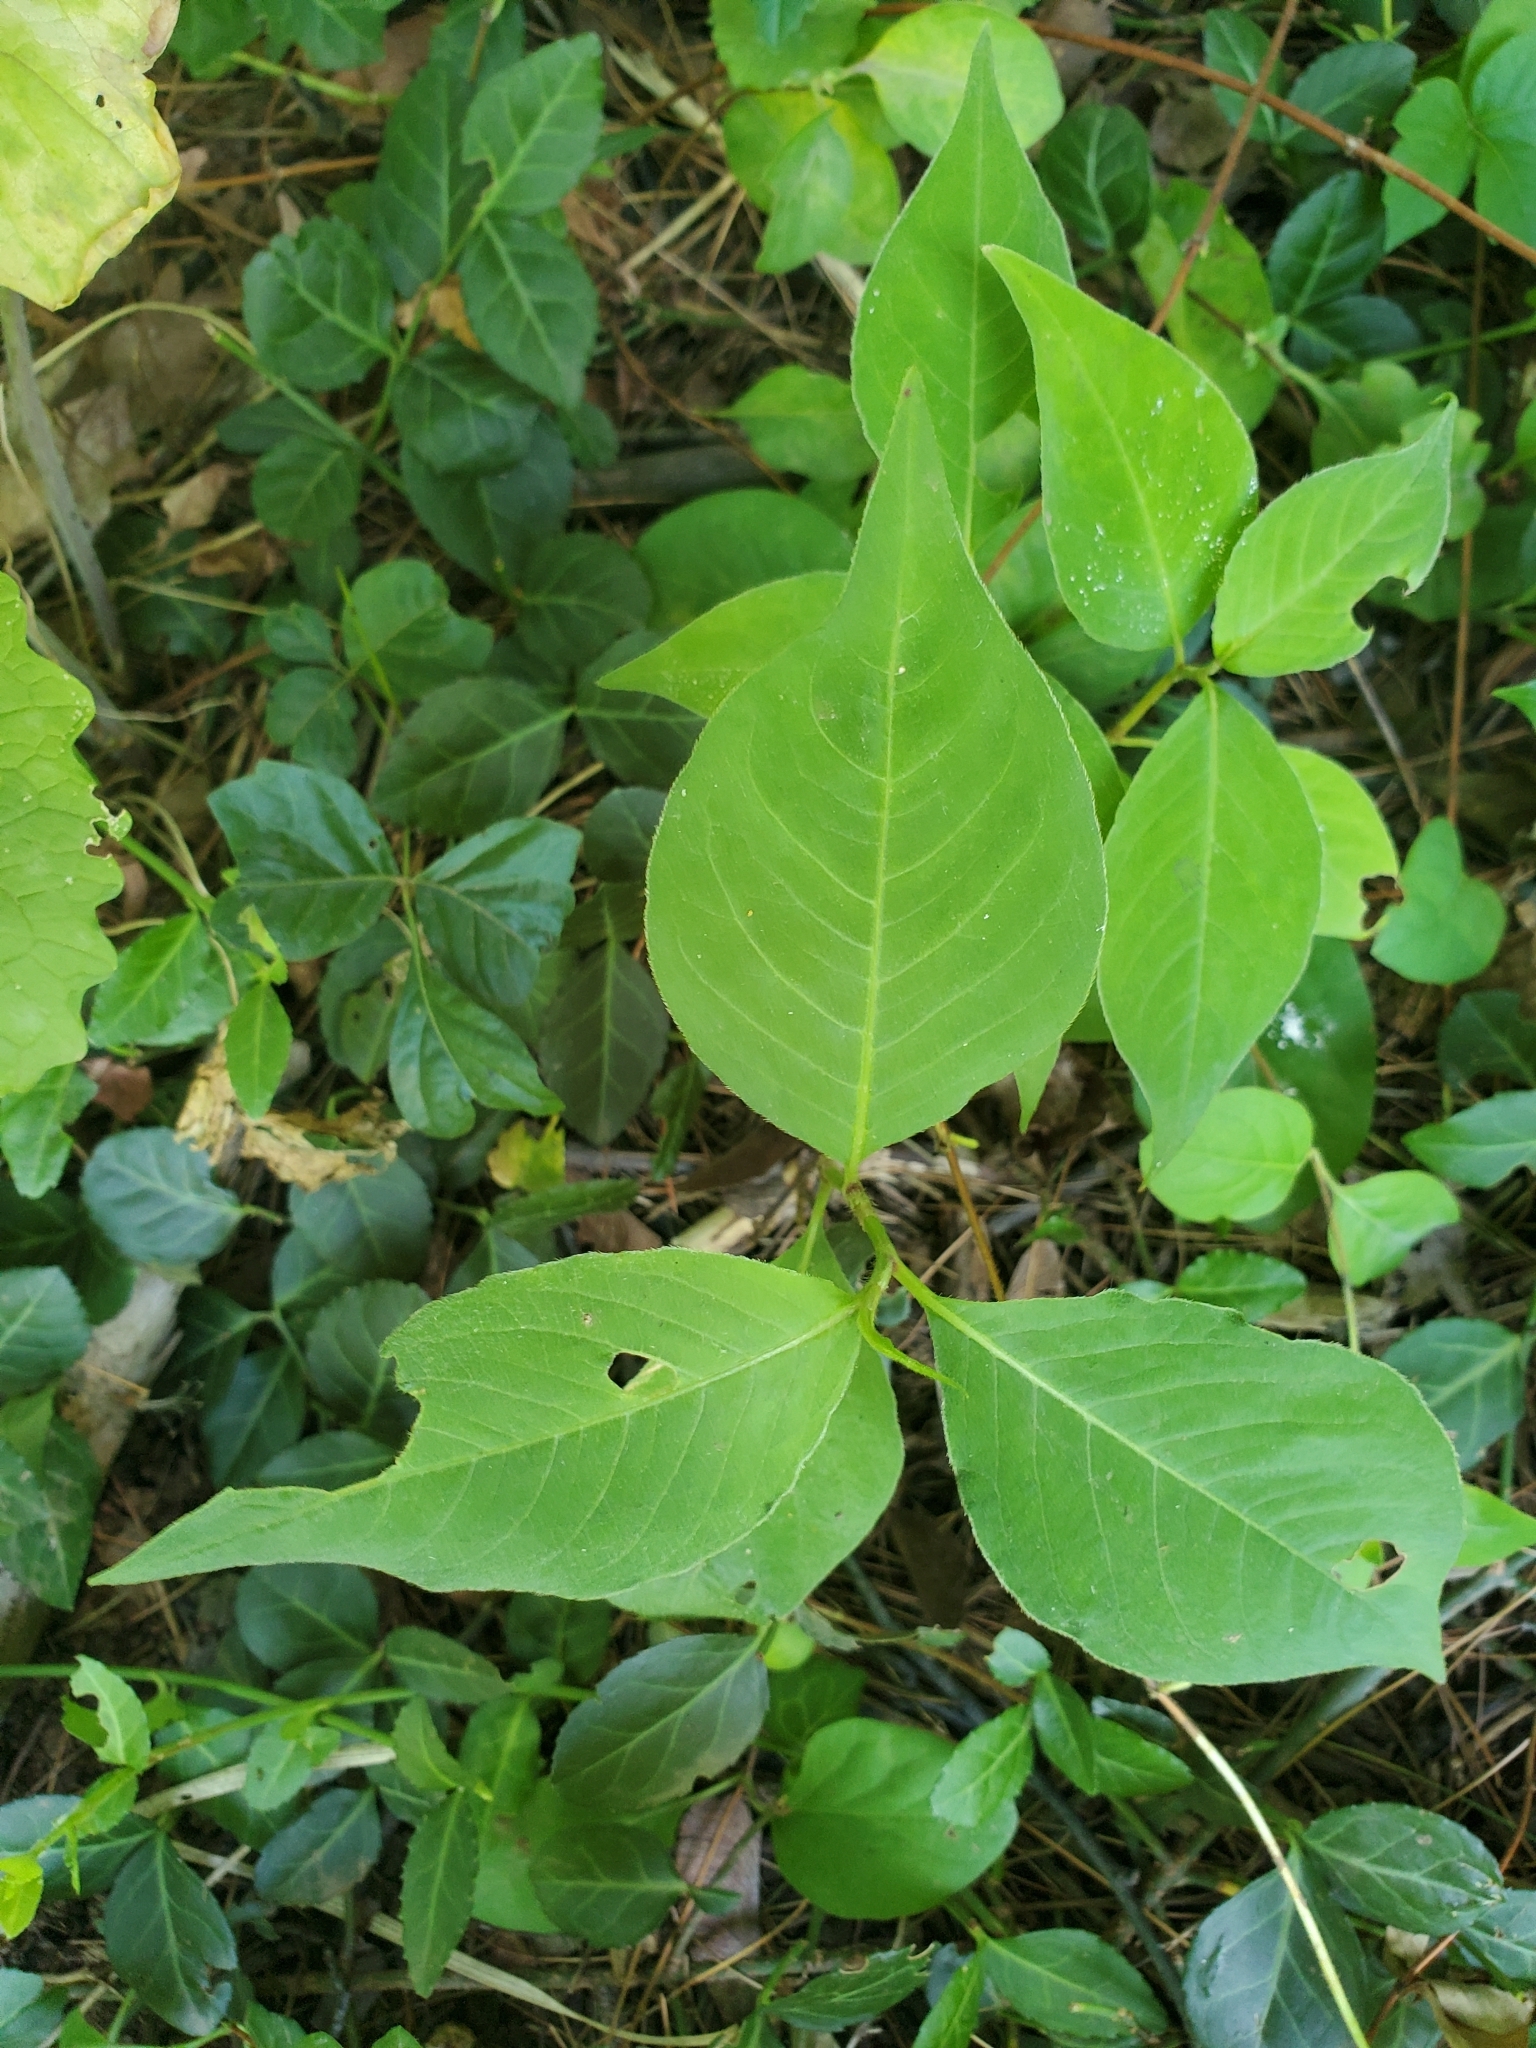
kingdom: Plantae
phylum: Tracheophyta
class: Magnoliopsida
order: Caryophyllales
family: Polygonaceae
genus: Persicaria
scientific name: Persicaria virginiana
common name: Jumpseed
